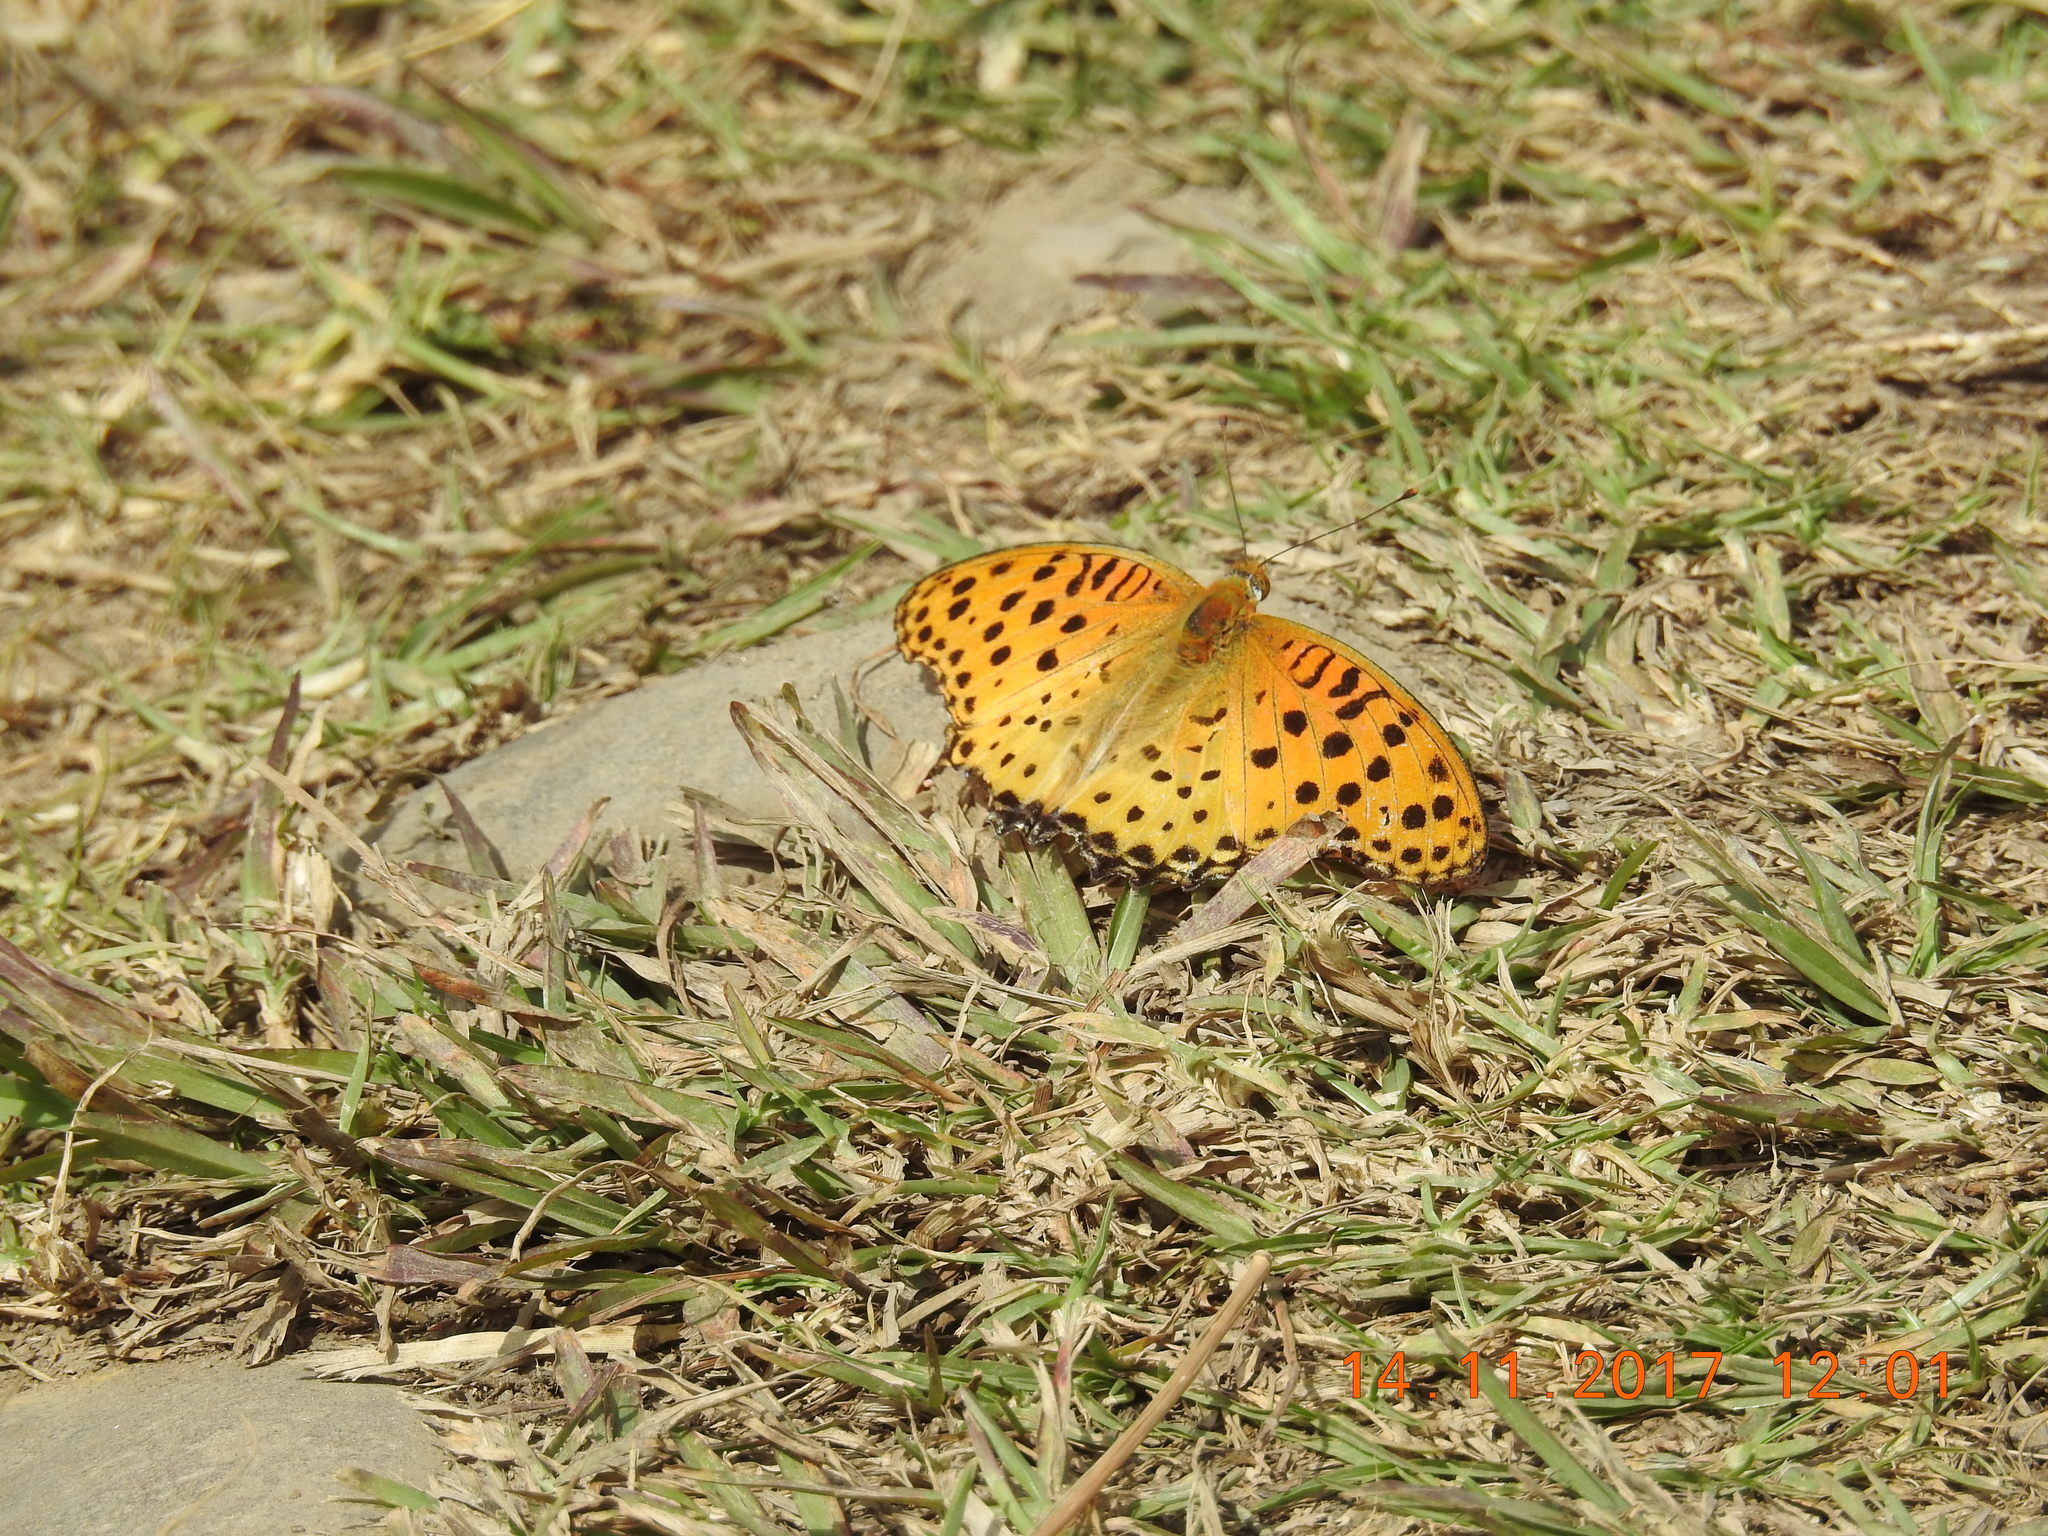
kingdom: Animalia
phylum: Arthropoda
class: Insecta
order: Lepidoptera
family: Nymphalidae
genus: Argynnis
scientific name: Argynnis hyperbius
